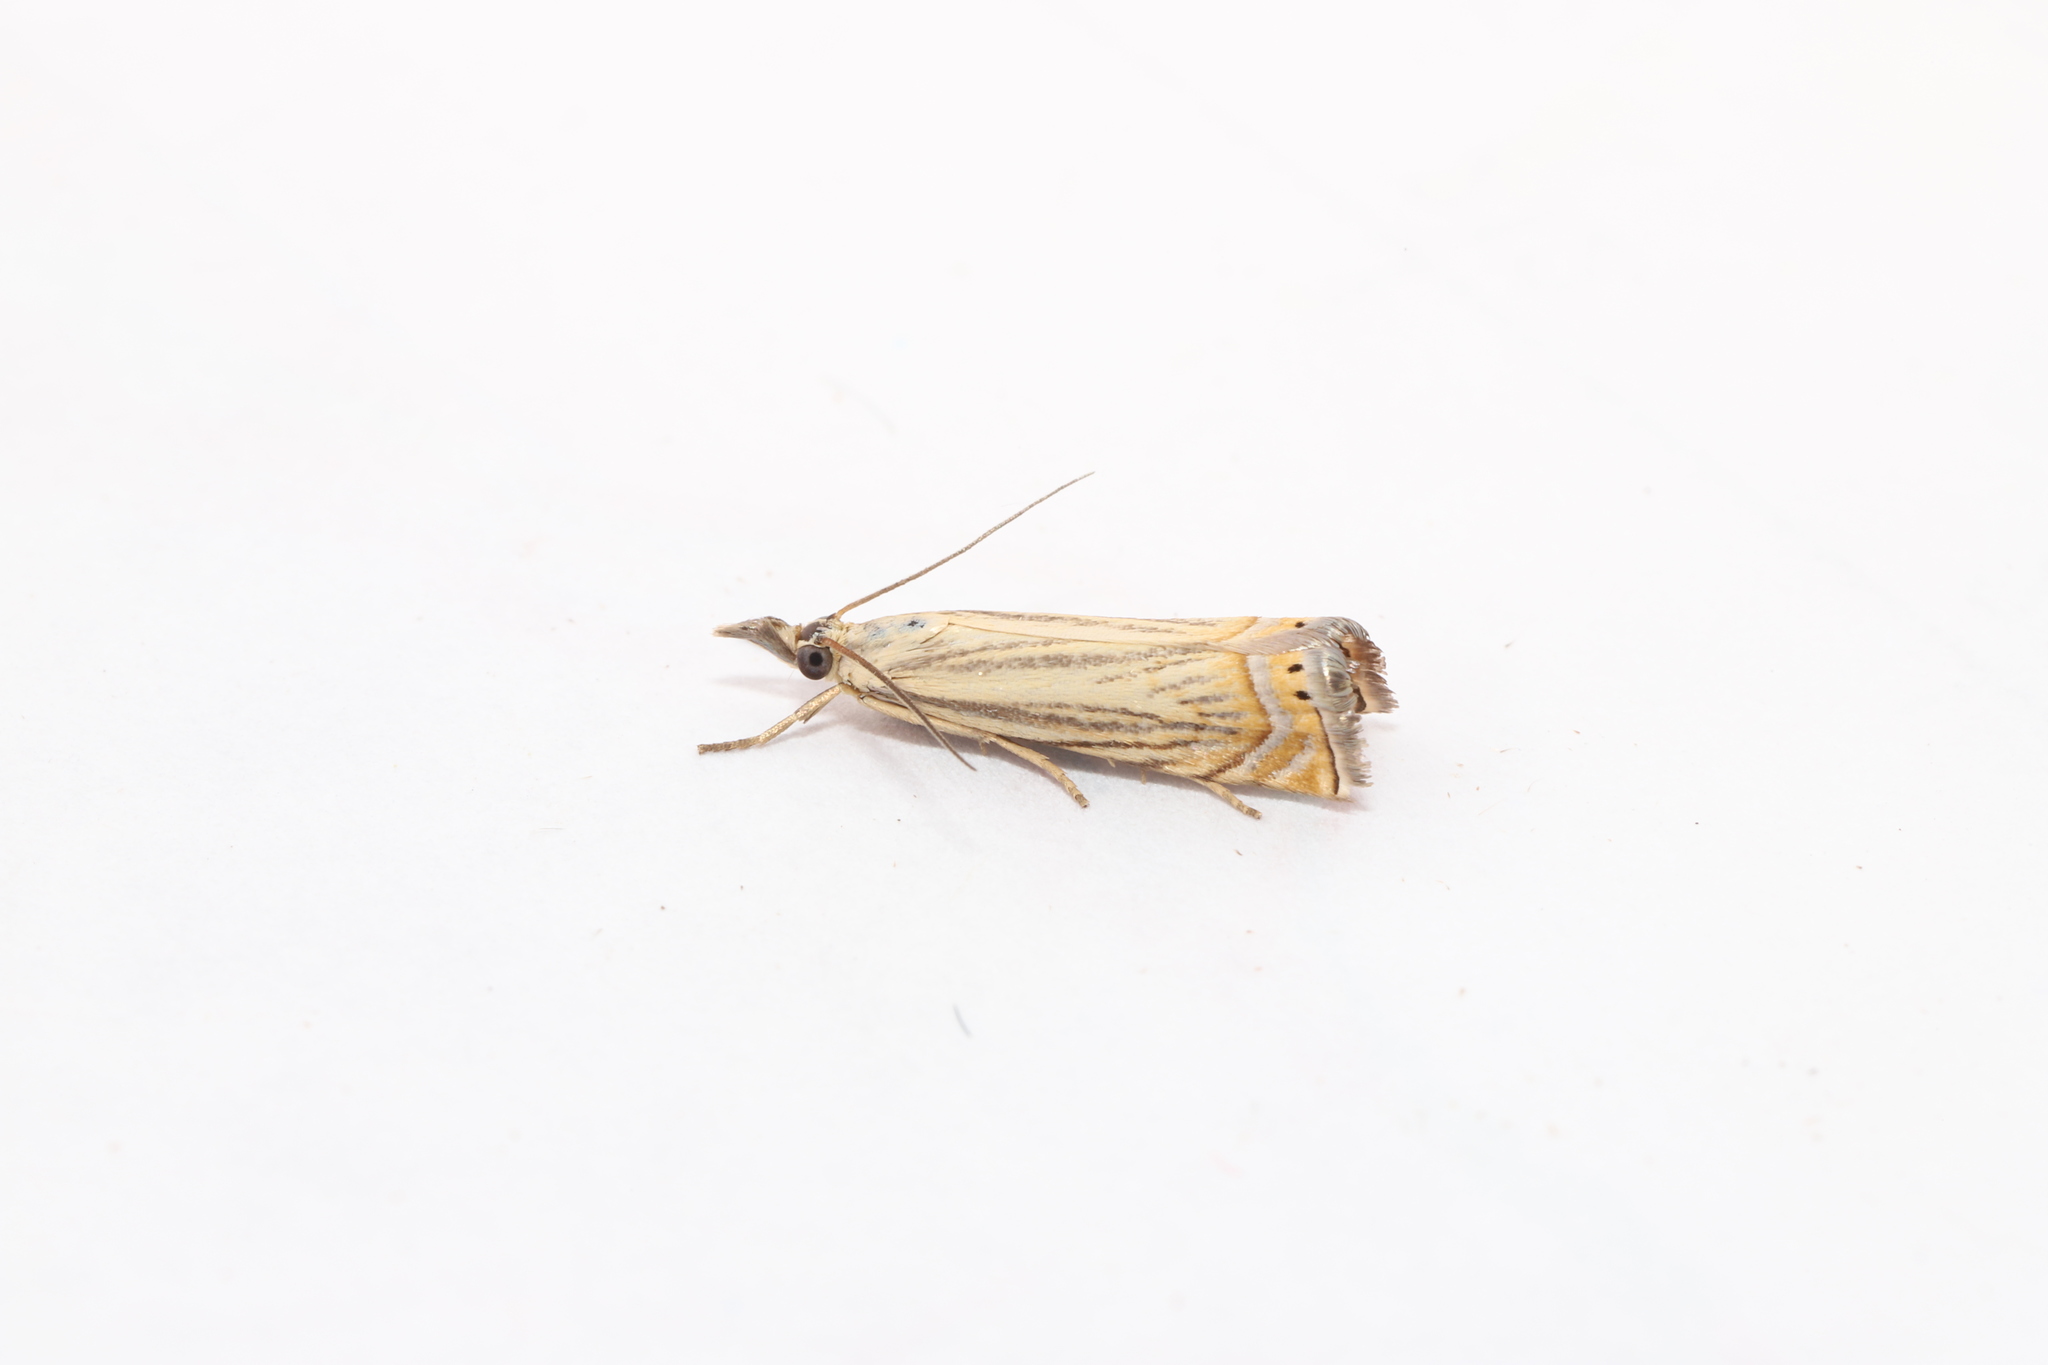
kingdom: Animalia
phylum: Arthropoda
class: Insecta
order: Lepidoptera
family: Crambidae
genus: Chrysoteuchia
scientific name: Chrysoteuchia topiarius
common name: Topiary grass-veneer
